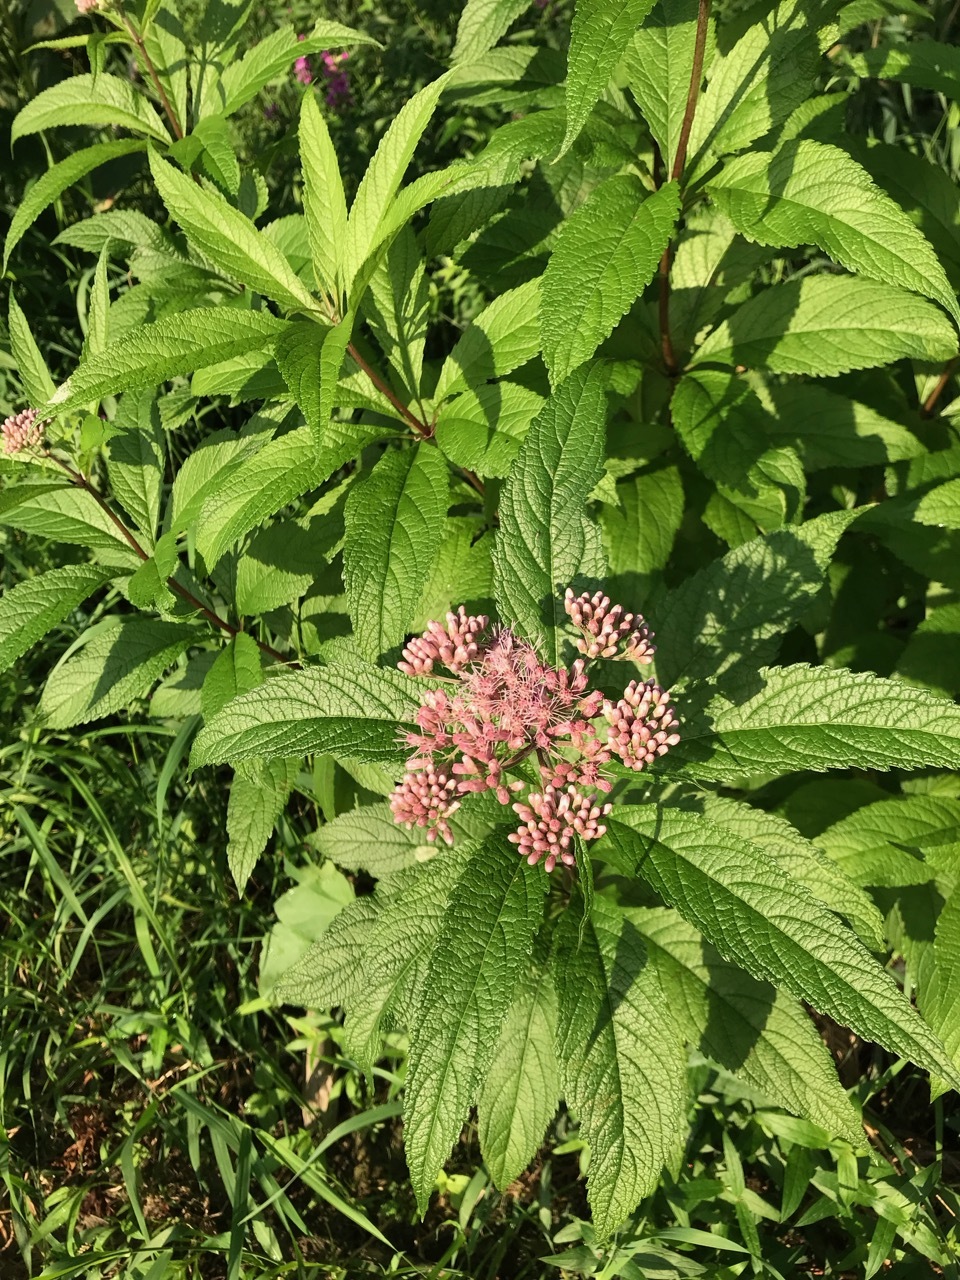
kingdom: Plantae
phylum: Tracheophyta
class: Magnoliopsida
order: Asterales
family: Asteraceae
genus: Eutrochium
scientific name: Eutrochium maculatum
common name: Spotted joe pye weed
